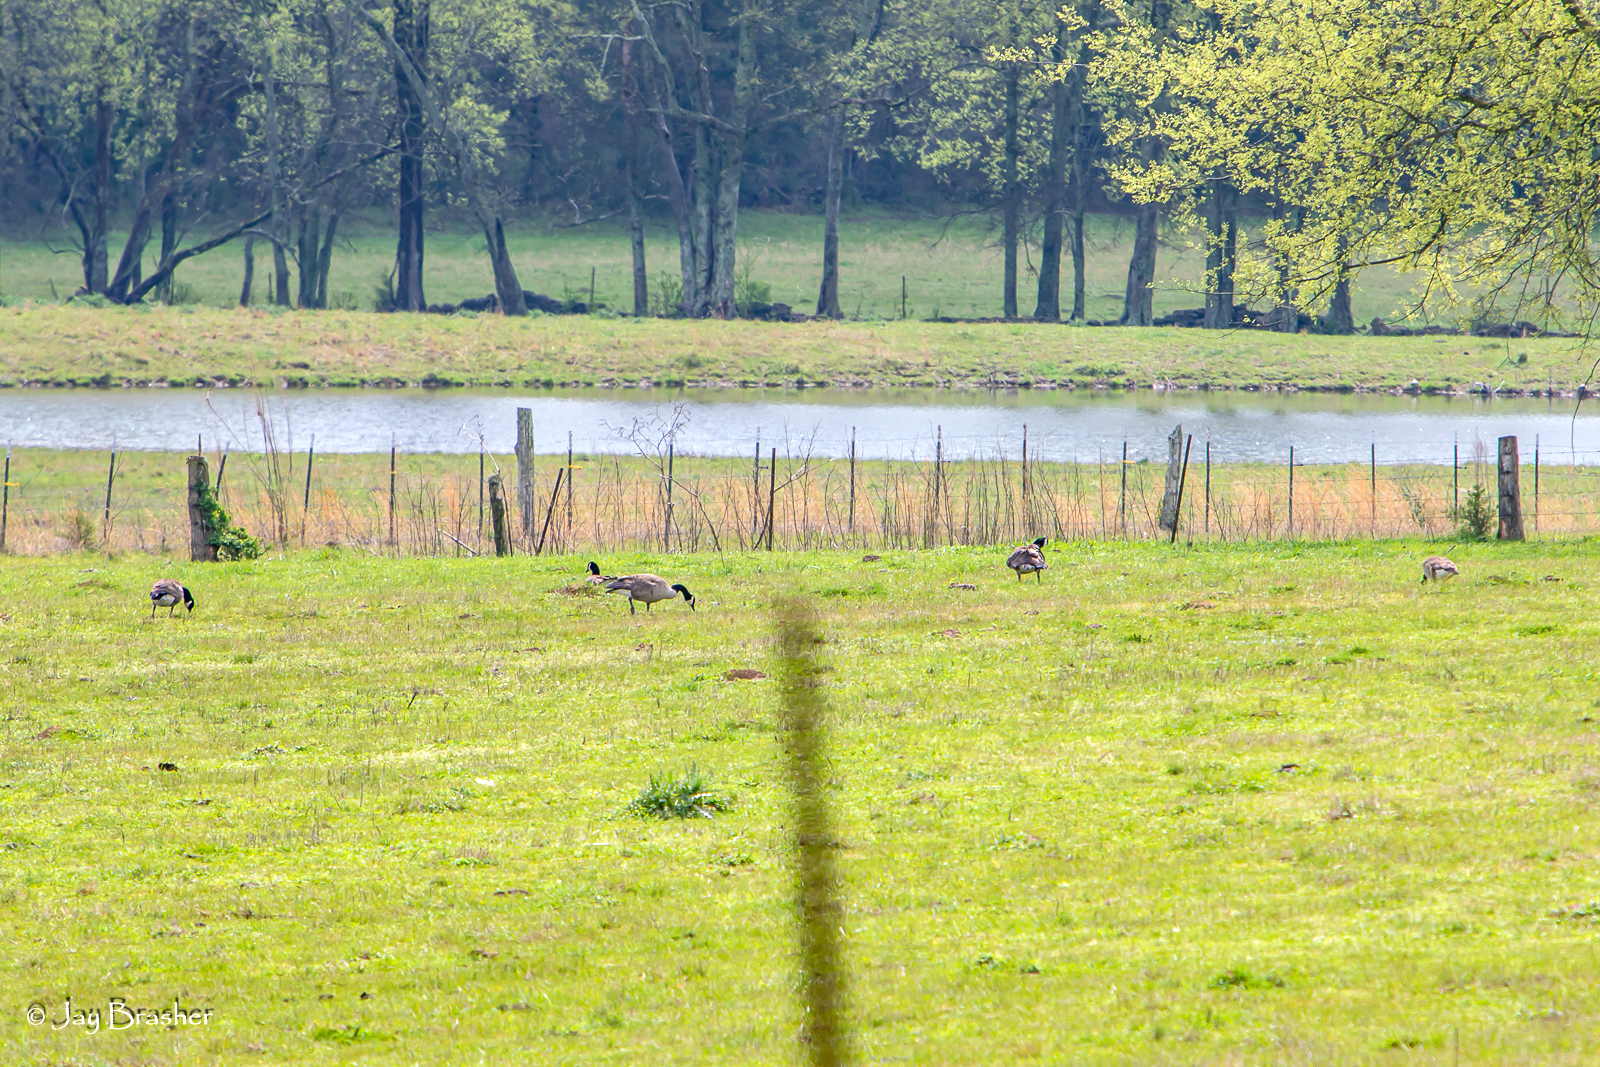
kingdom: Animalia
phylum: Chordata
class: Aves
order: Anseriformes
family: Anatidae
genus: Branta
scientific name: Branta canadensis
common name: Canada goose
